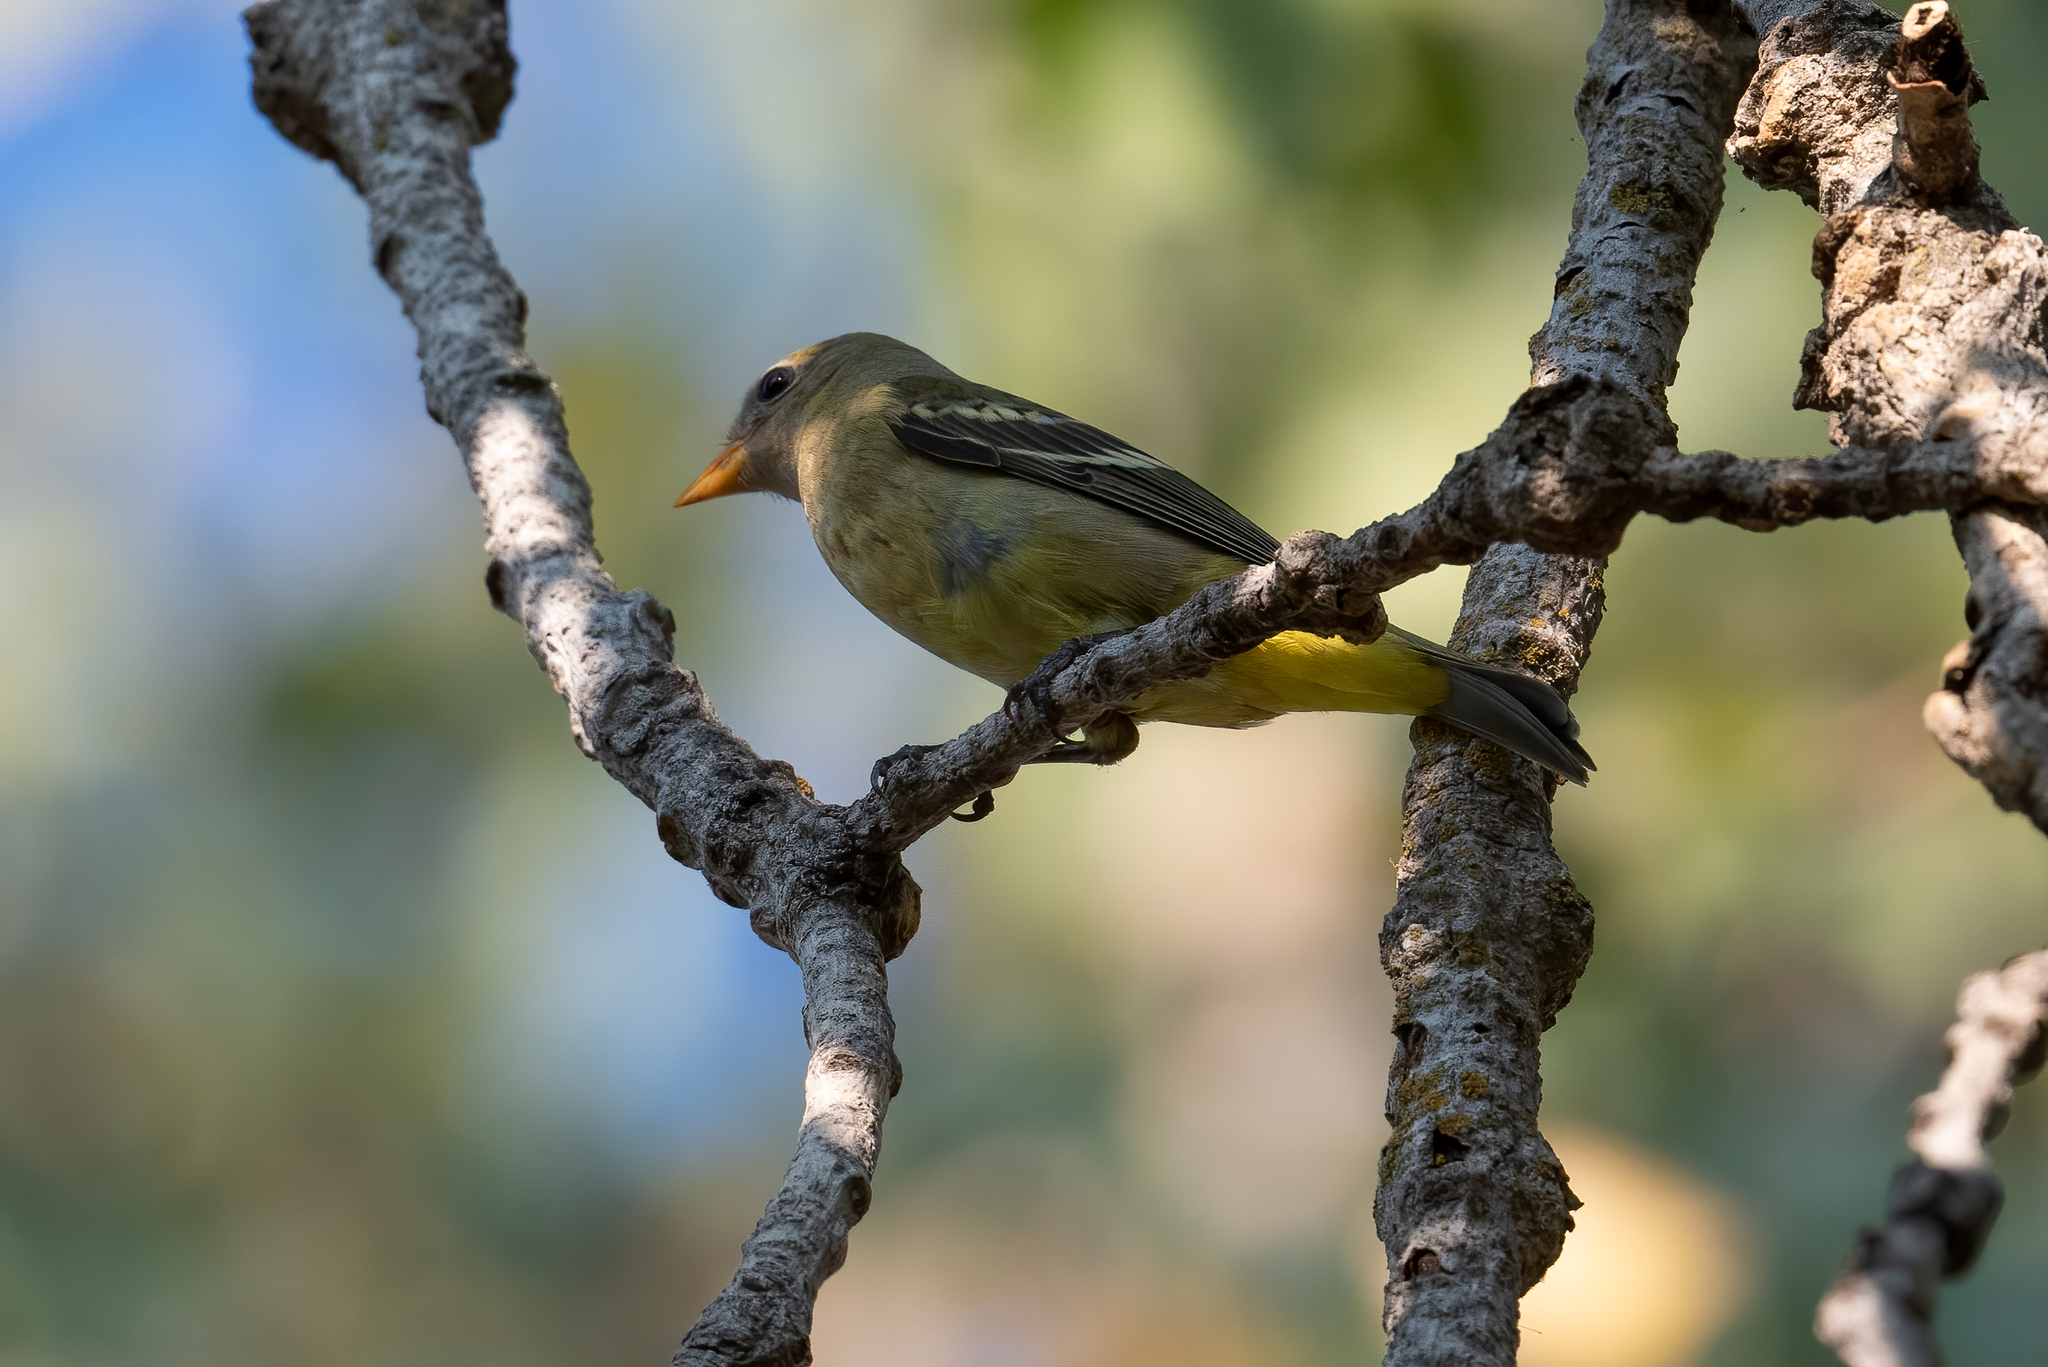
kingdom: Animalia
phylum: Chordata
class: Aves
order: Passeriformes
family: Cardinalidae
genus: Piranga
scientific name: Piranga ludoviciana
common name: Western tanager
